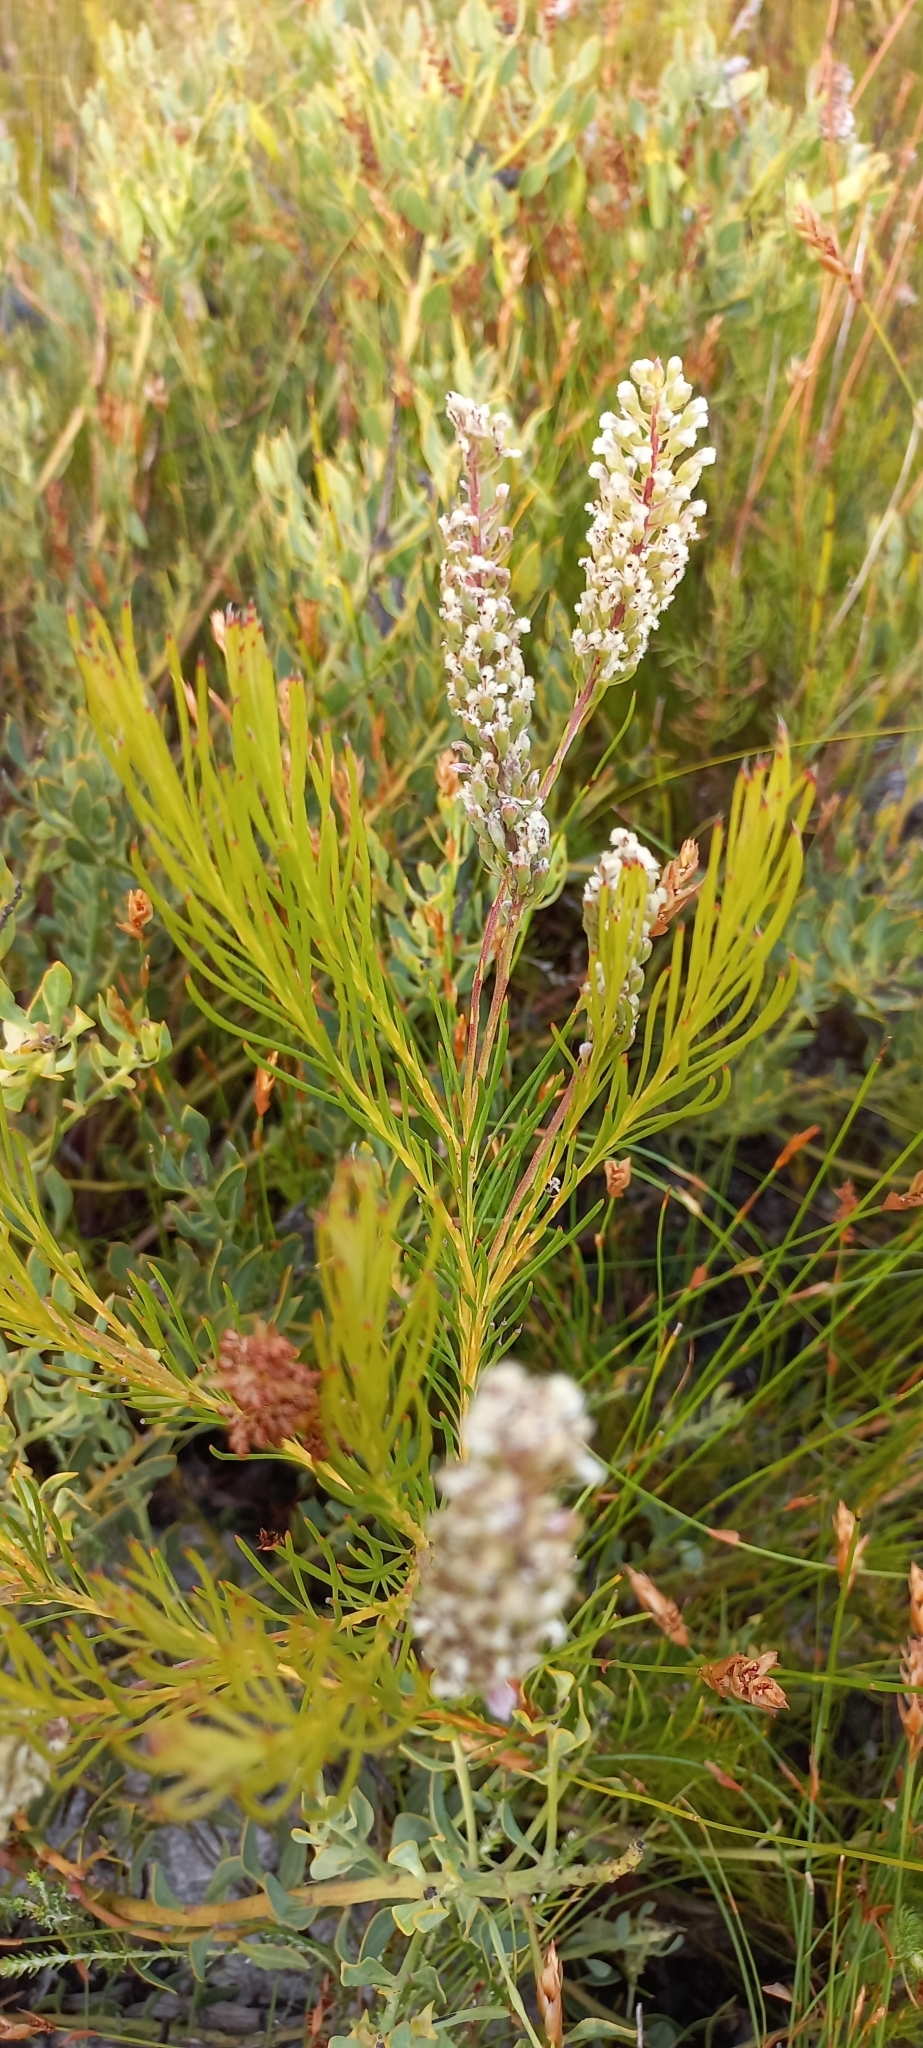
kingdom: Plantae
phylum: Tracheophyta
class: Magnoliopsida
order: Proteales
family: Proteaceae
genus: Spatalla
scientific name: Spatalla curvifolia
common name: White-stalked spoon
